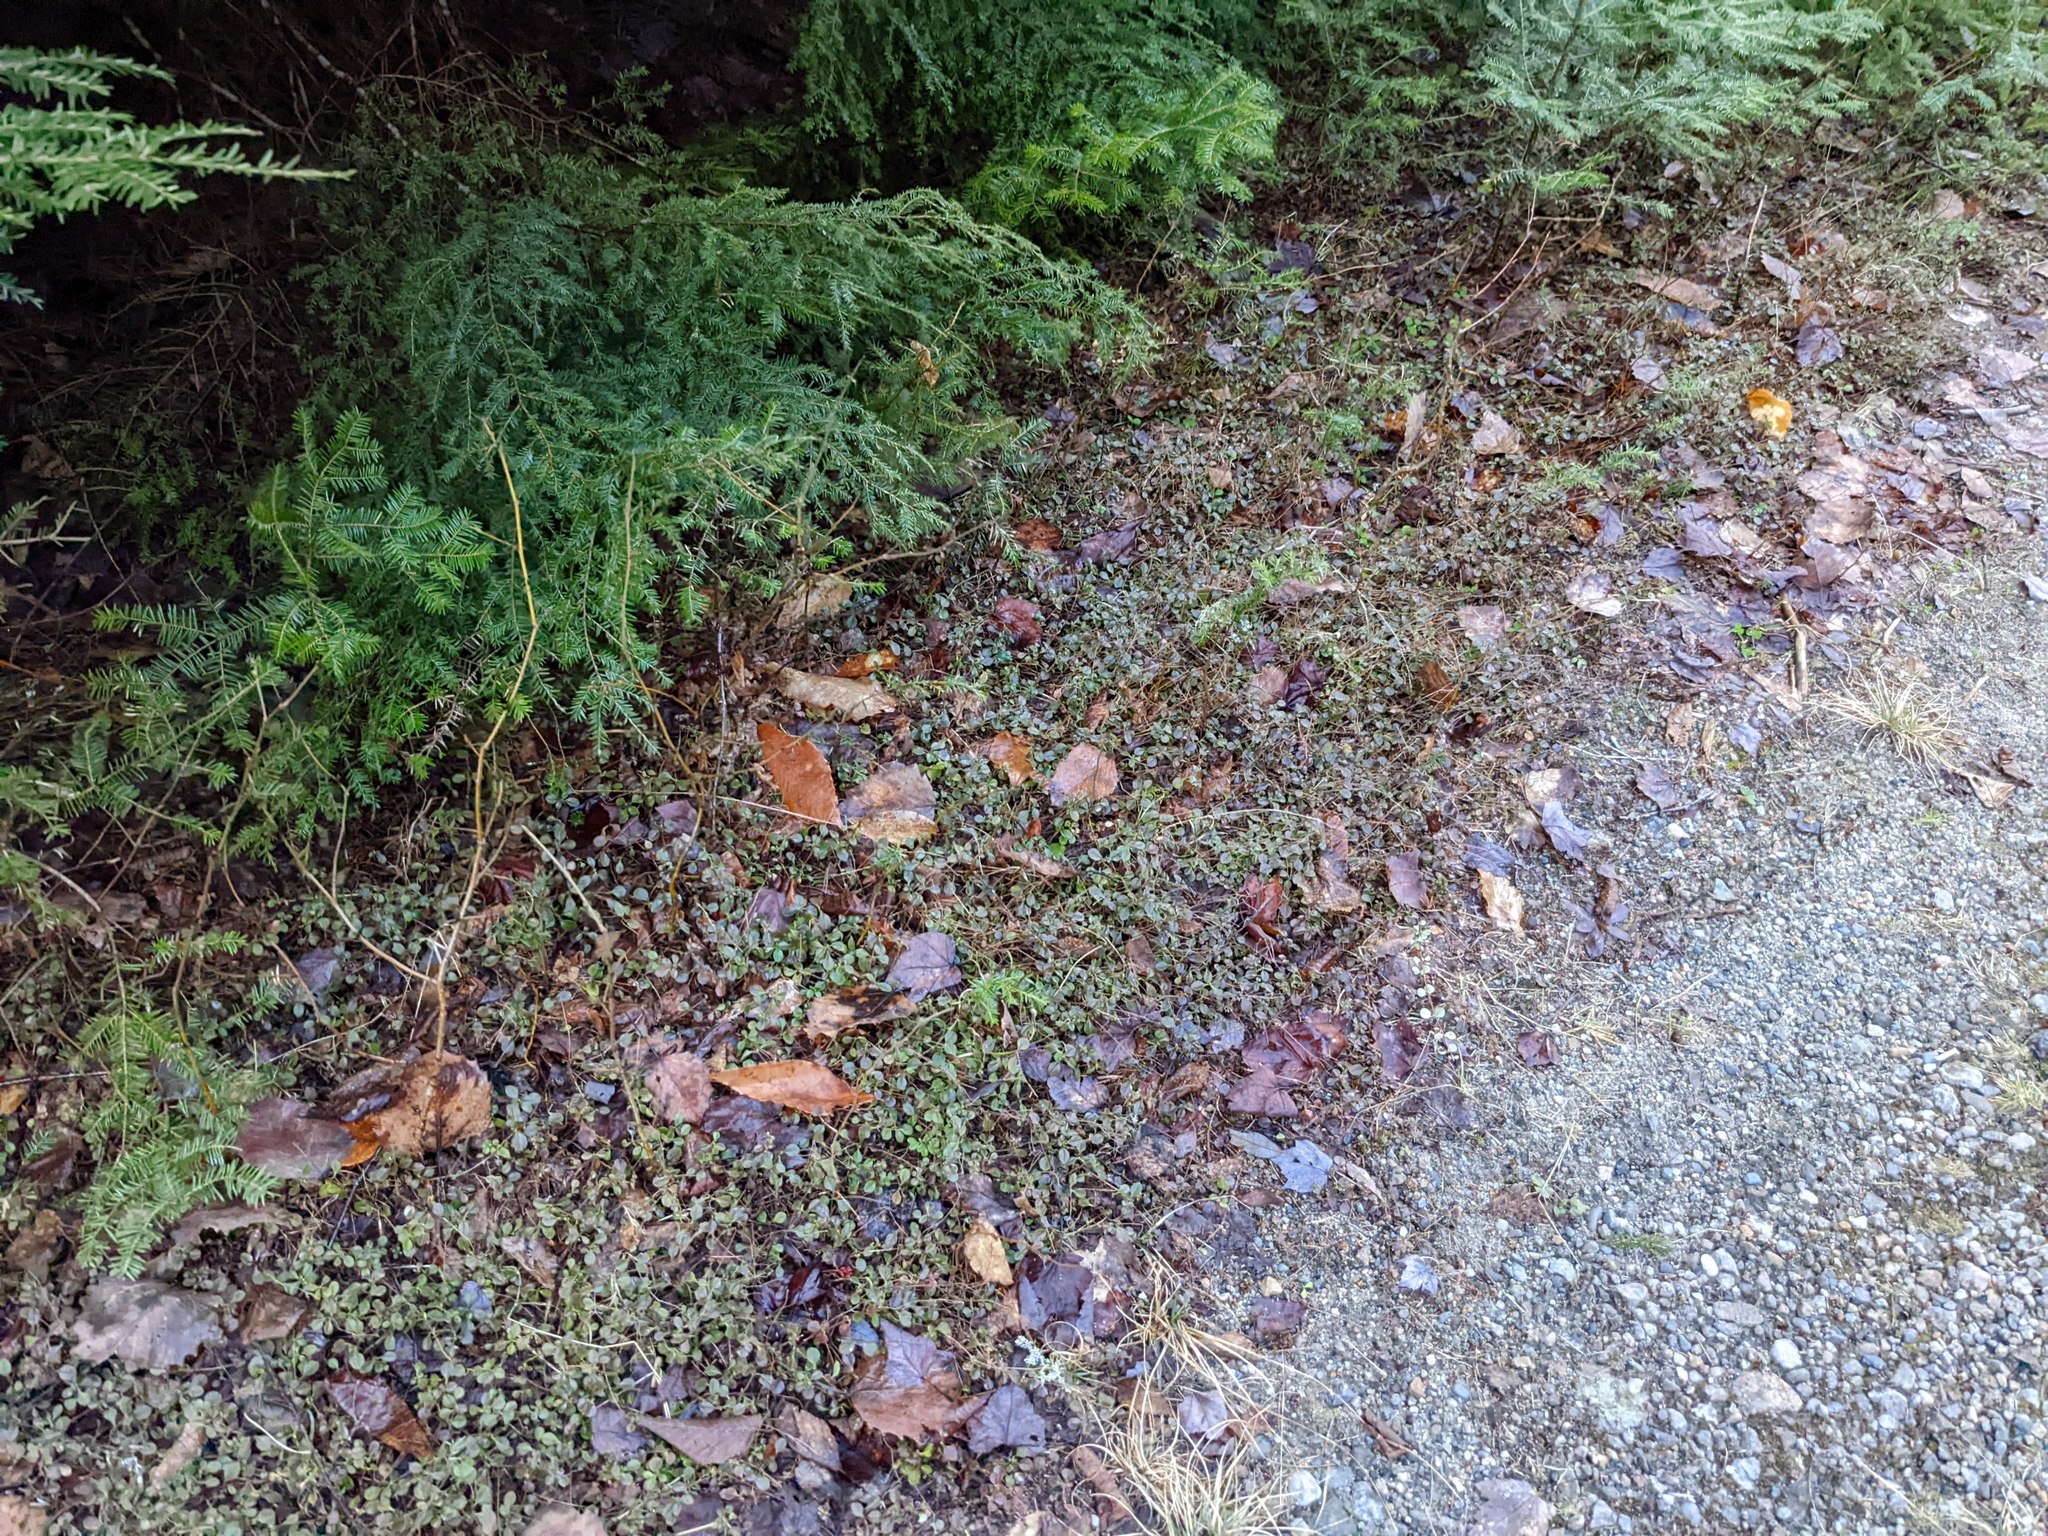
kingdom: Plantae
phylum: Tracheophyta
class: Magnoliopsida
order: Dipsacales
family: Caprifoliaceae
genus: Linnaea
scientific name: Linnaea borealis
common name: Twinflower
